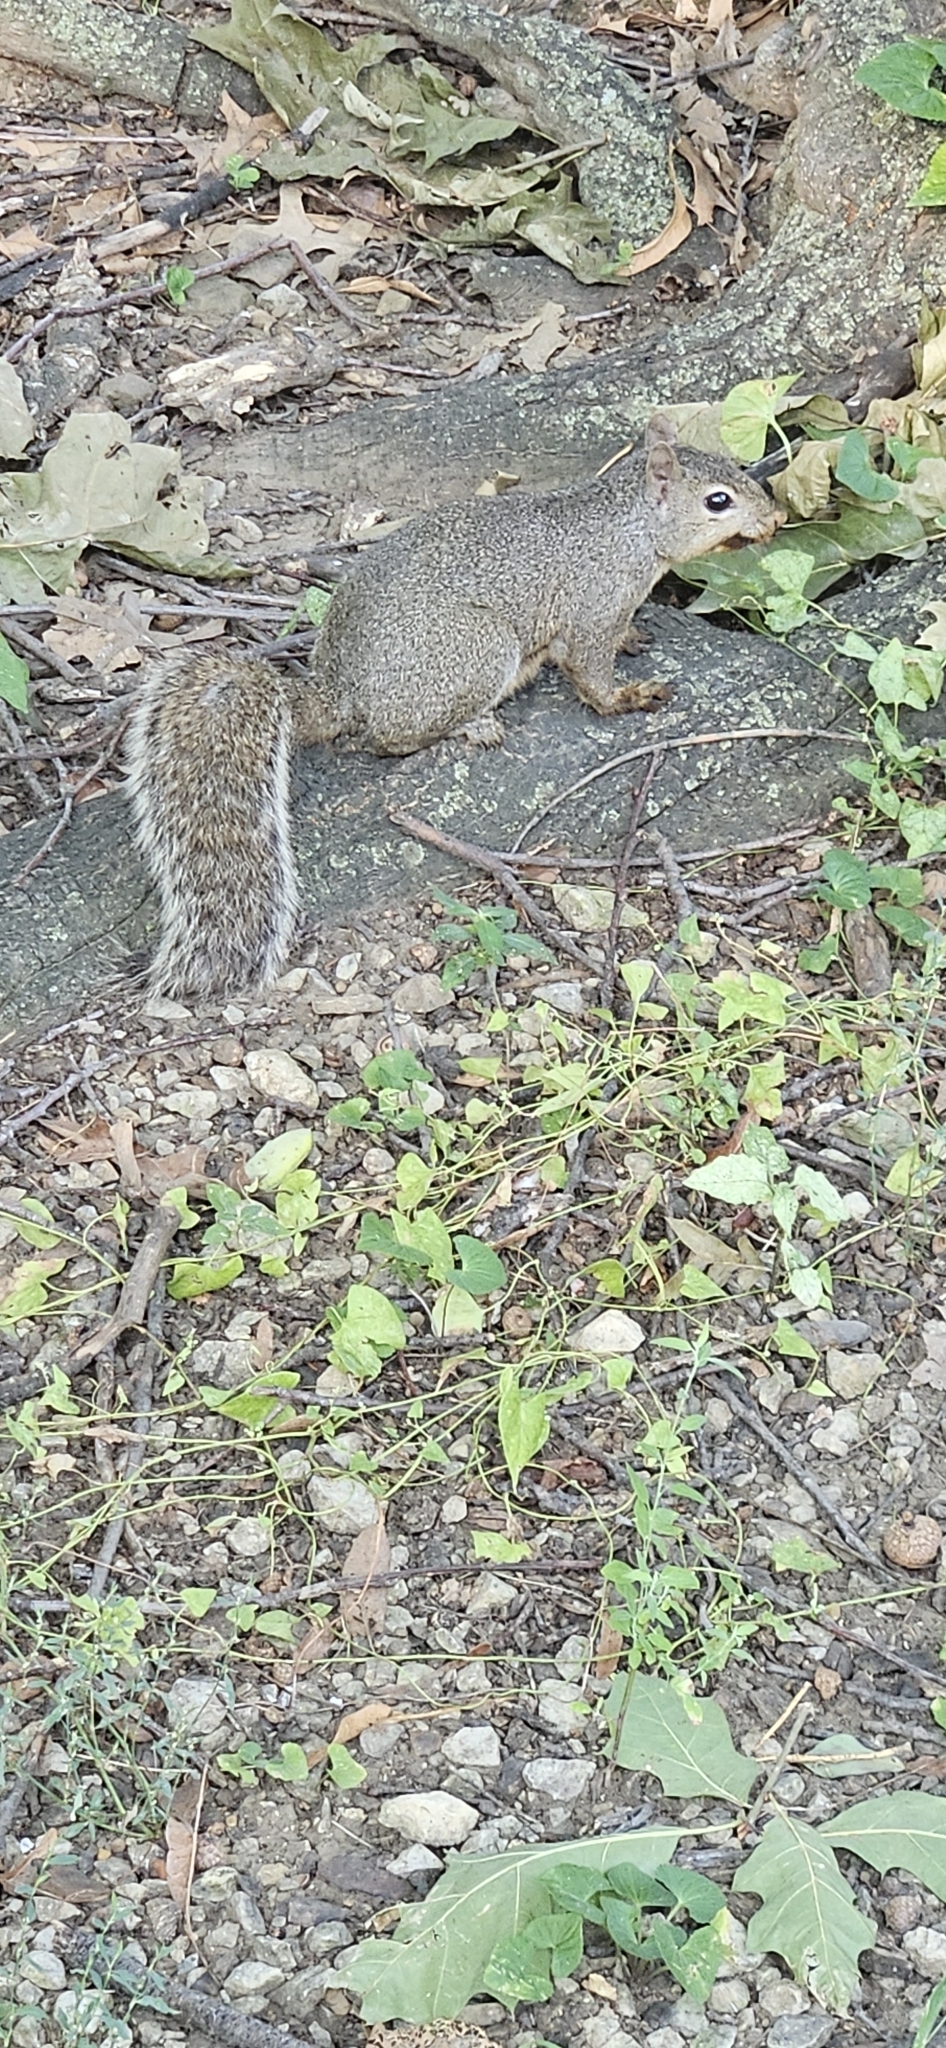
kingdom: Animalia
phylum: Chordata
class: Mammalia
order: Rodentia
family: Sciuridae
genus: Sciurus
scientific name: Sciurus carolinensis
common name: Eastern gray squirrel
